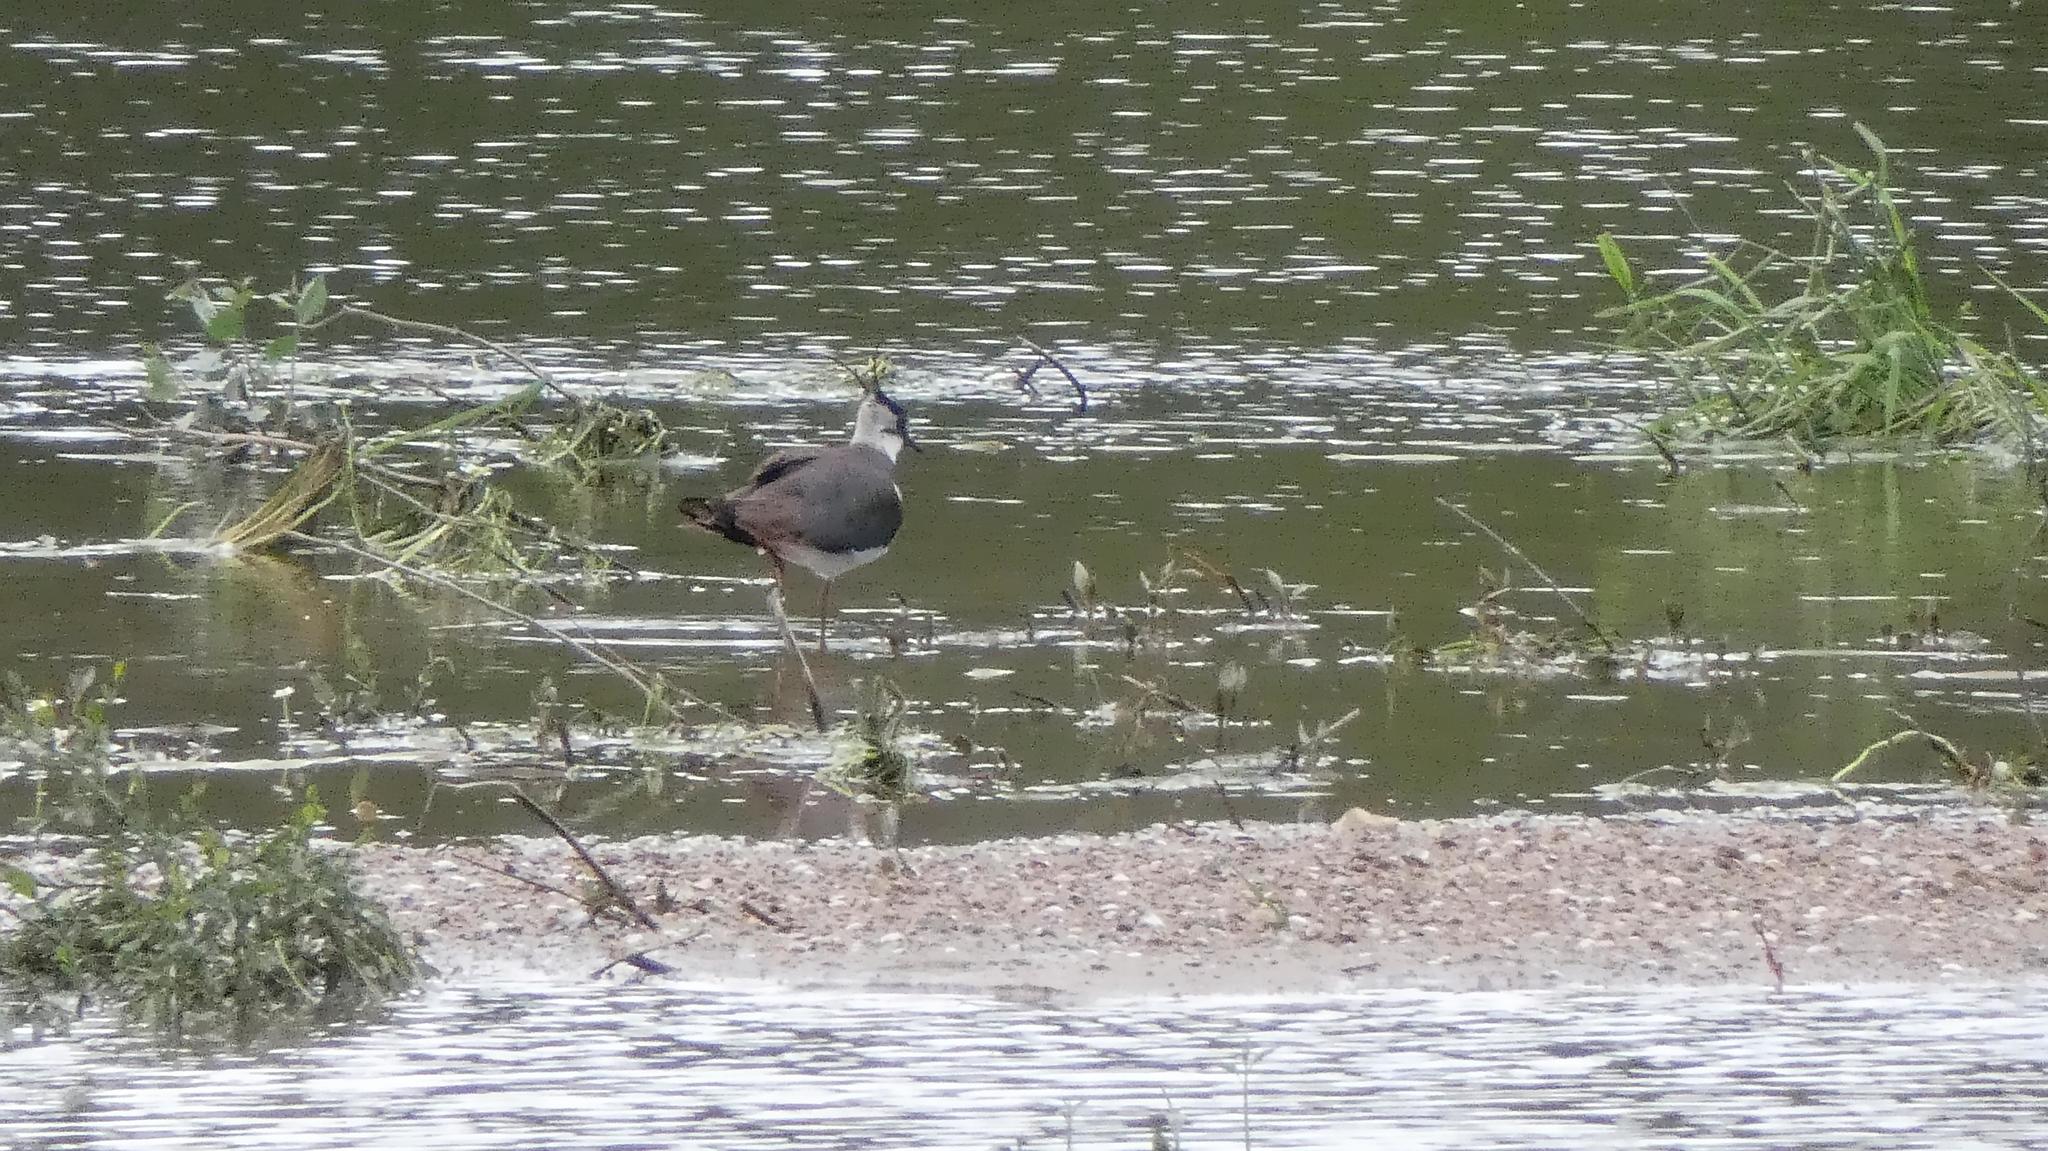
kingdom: Animalia
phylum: Chordata
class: Aves
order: Charadriiformes
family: Charadriidae
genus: Vanellus
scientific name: Vanellus vanellus
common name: Northern lapwing
